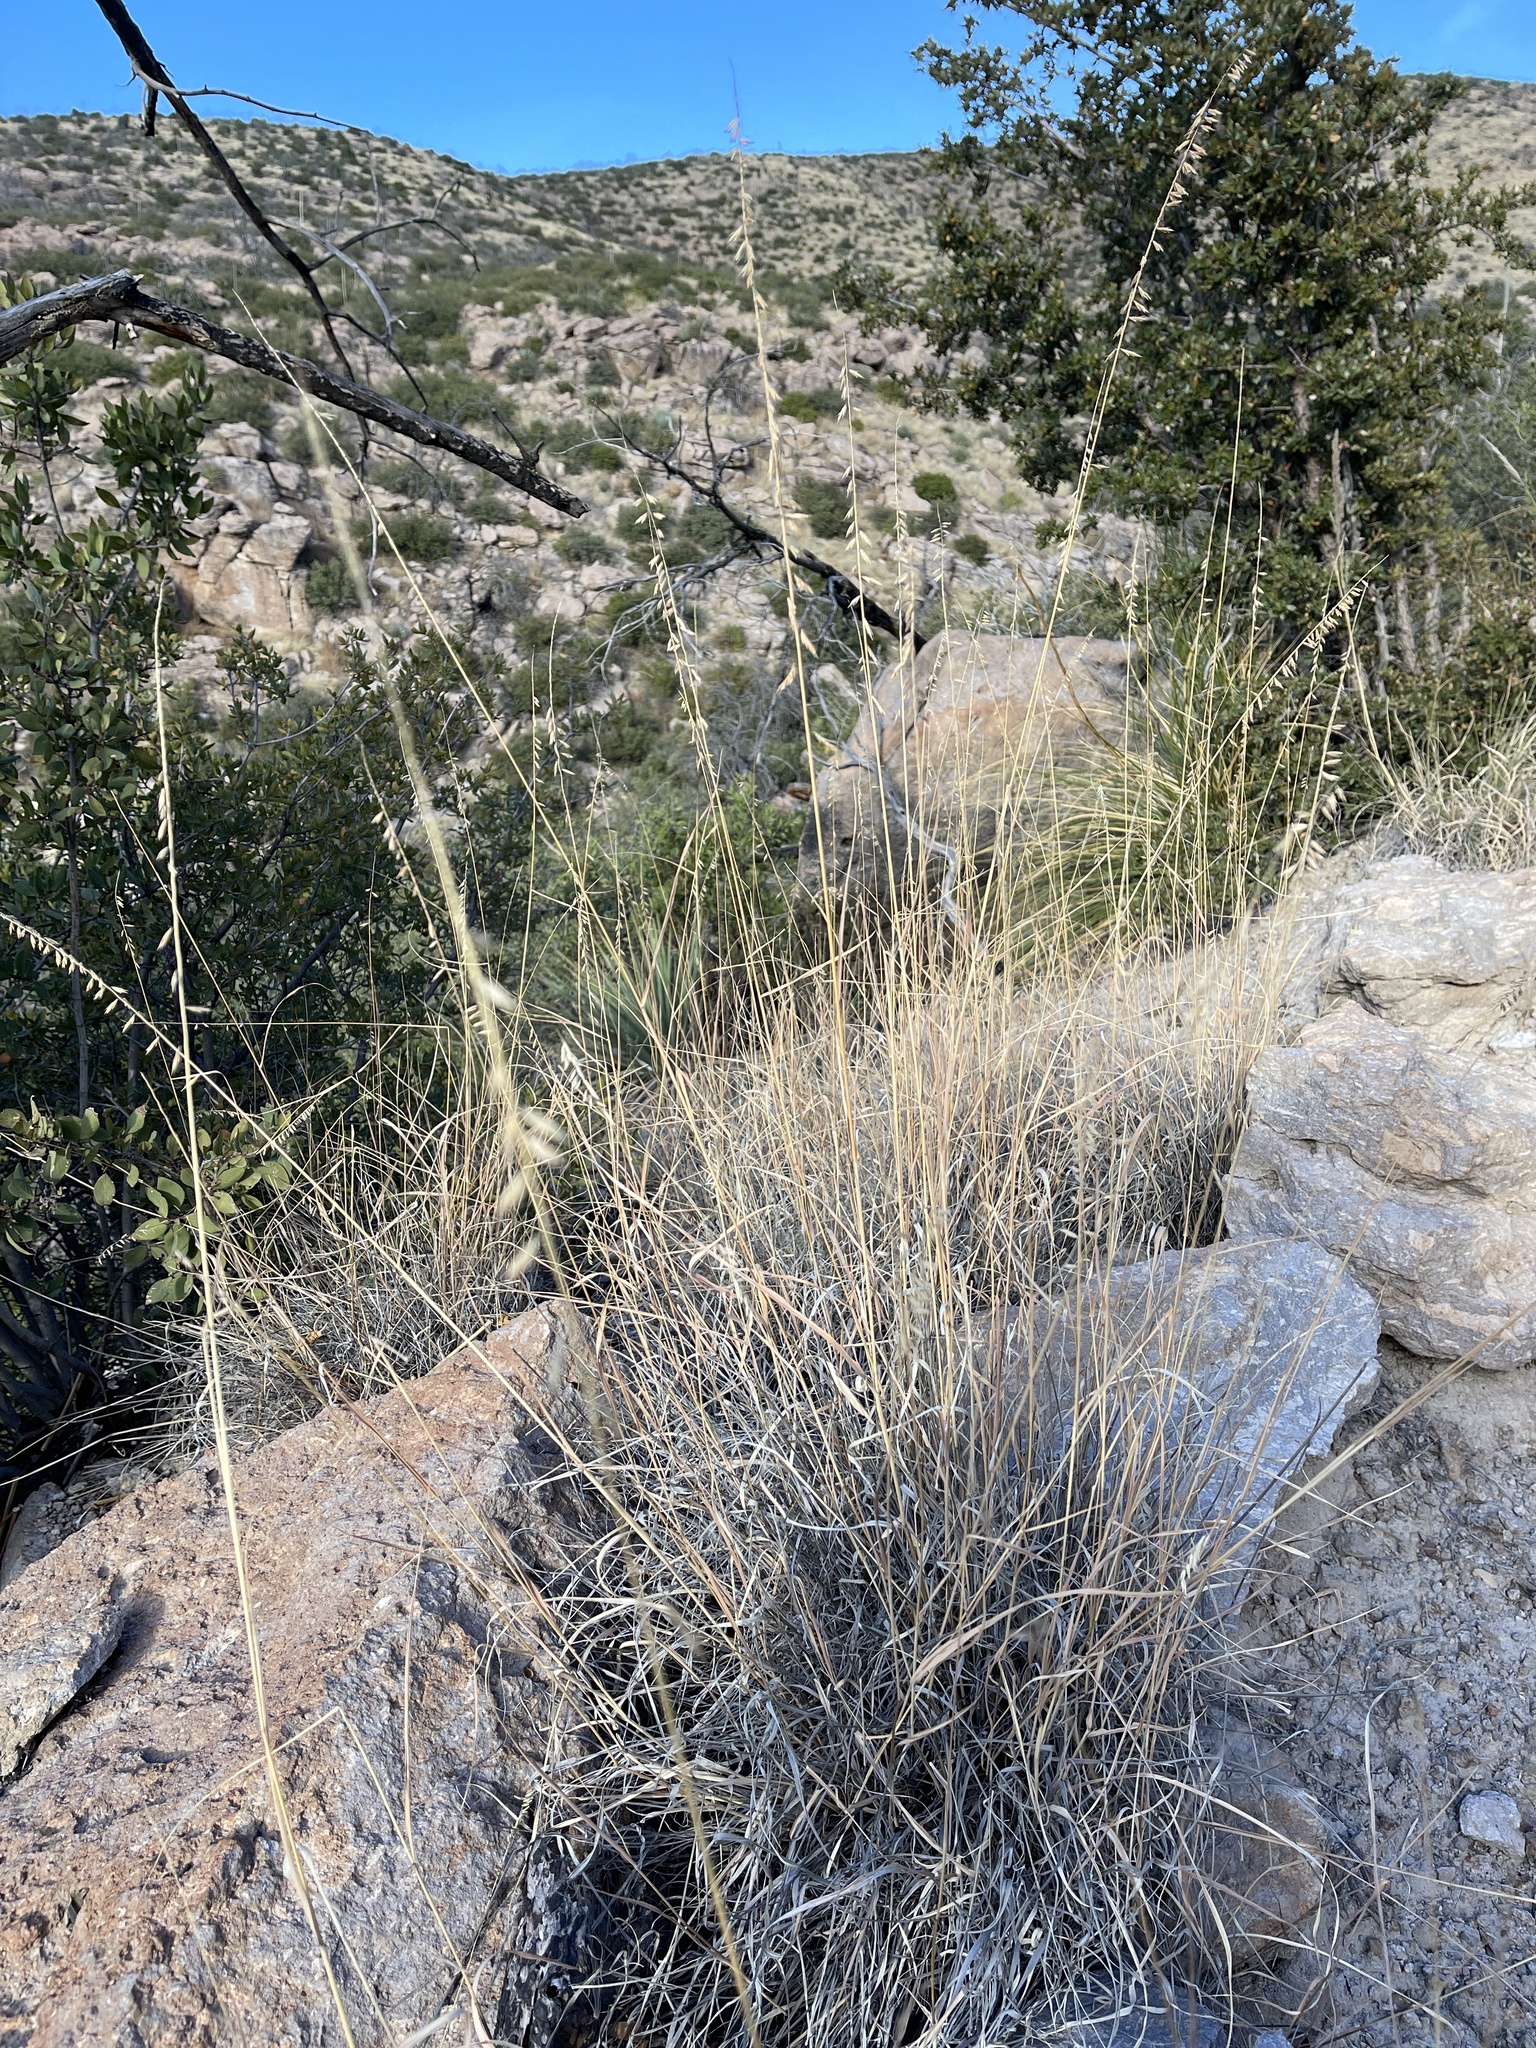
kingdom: Plantae
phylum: Tracheophyta
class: Liliopsida
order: Poales
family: Poaceae
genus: Bouteloua
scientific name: Bouteloua curtipendula
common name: Side-oats grama
